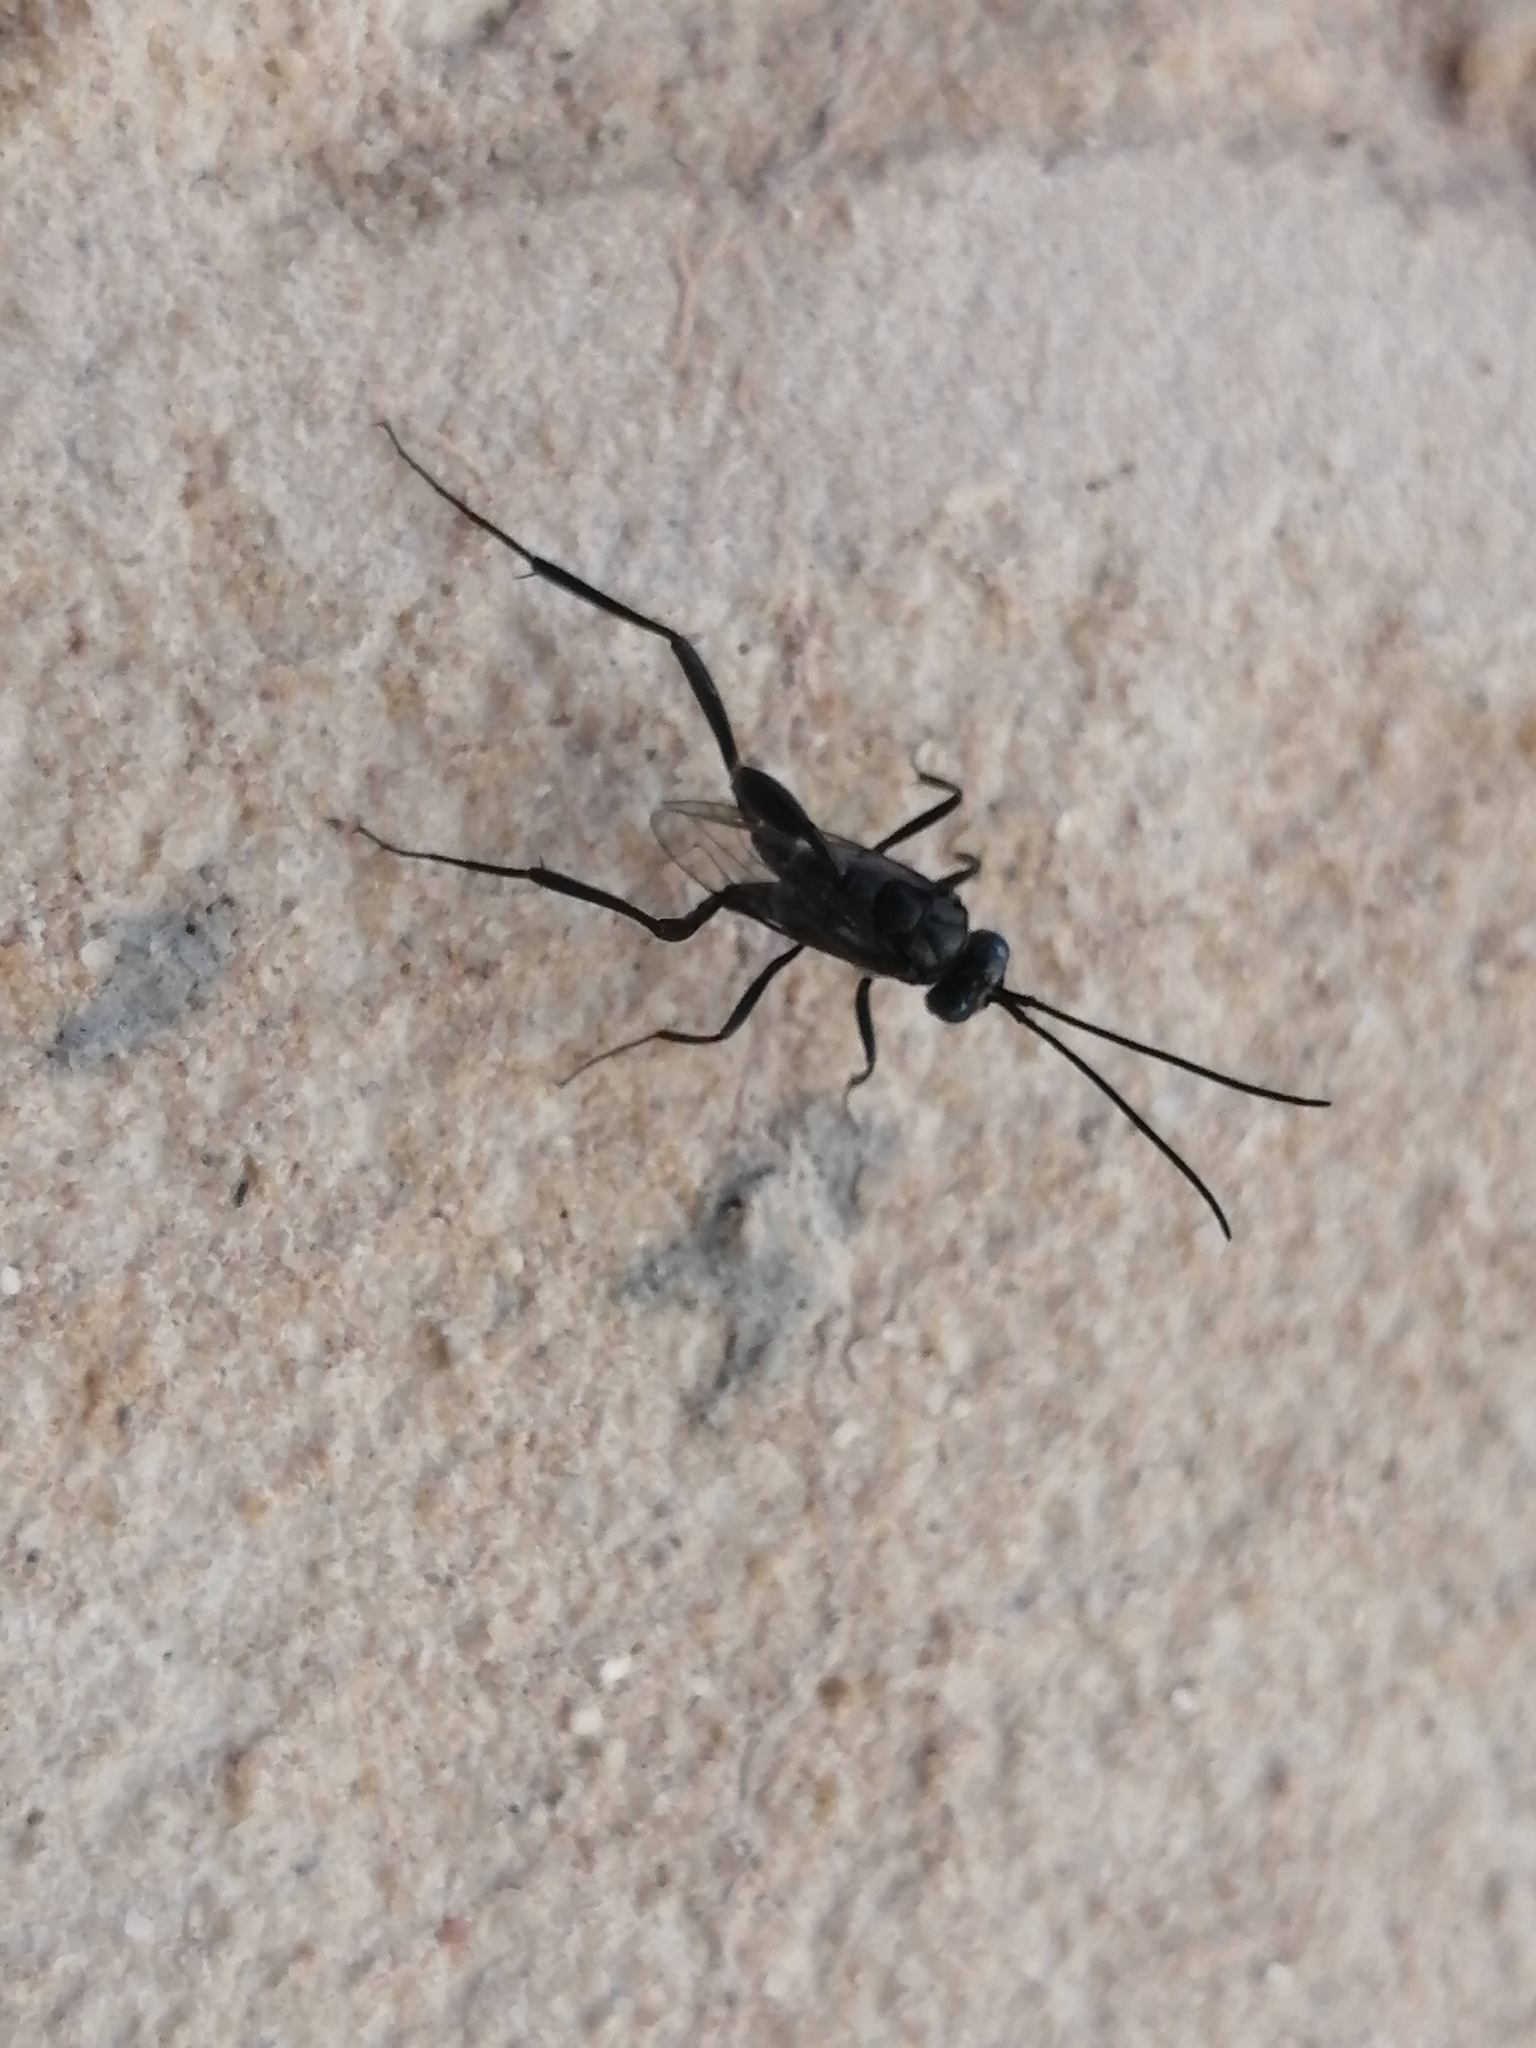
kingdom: Animalia
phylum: Arthropoda
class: Insecta
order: Hymenoptera
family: Evaniidae
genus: Evania
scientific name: Evania appendigaster
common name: Ensign wasp
